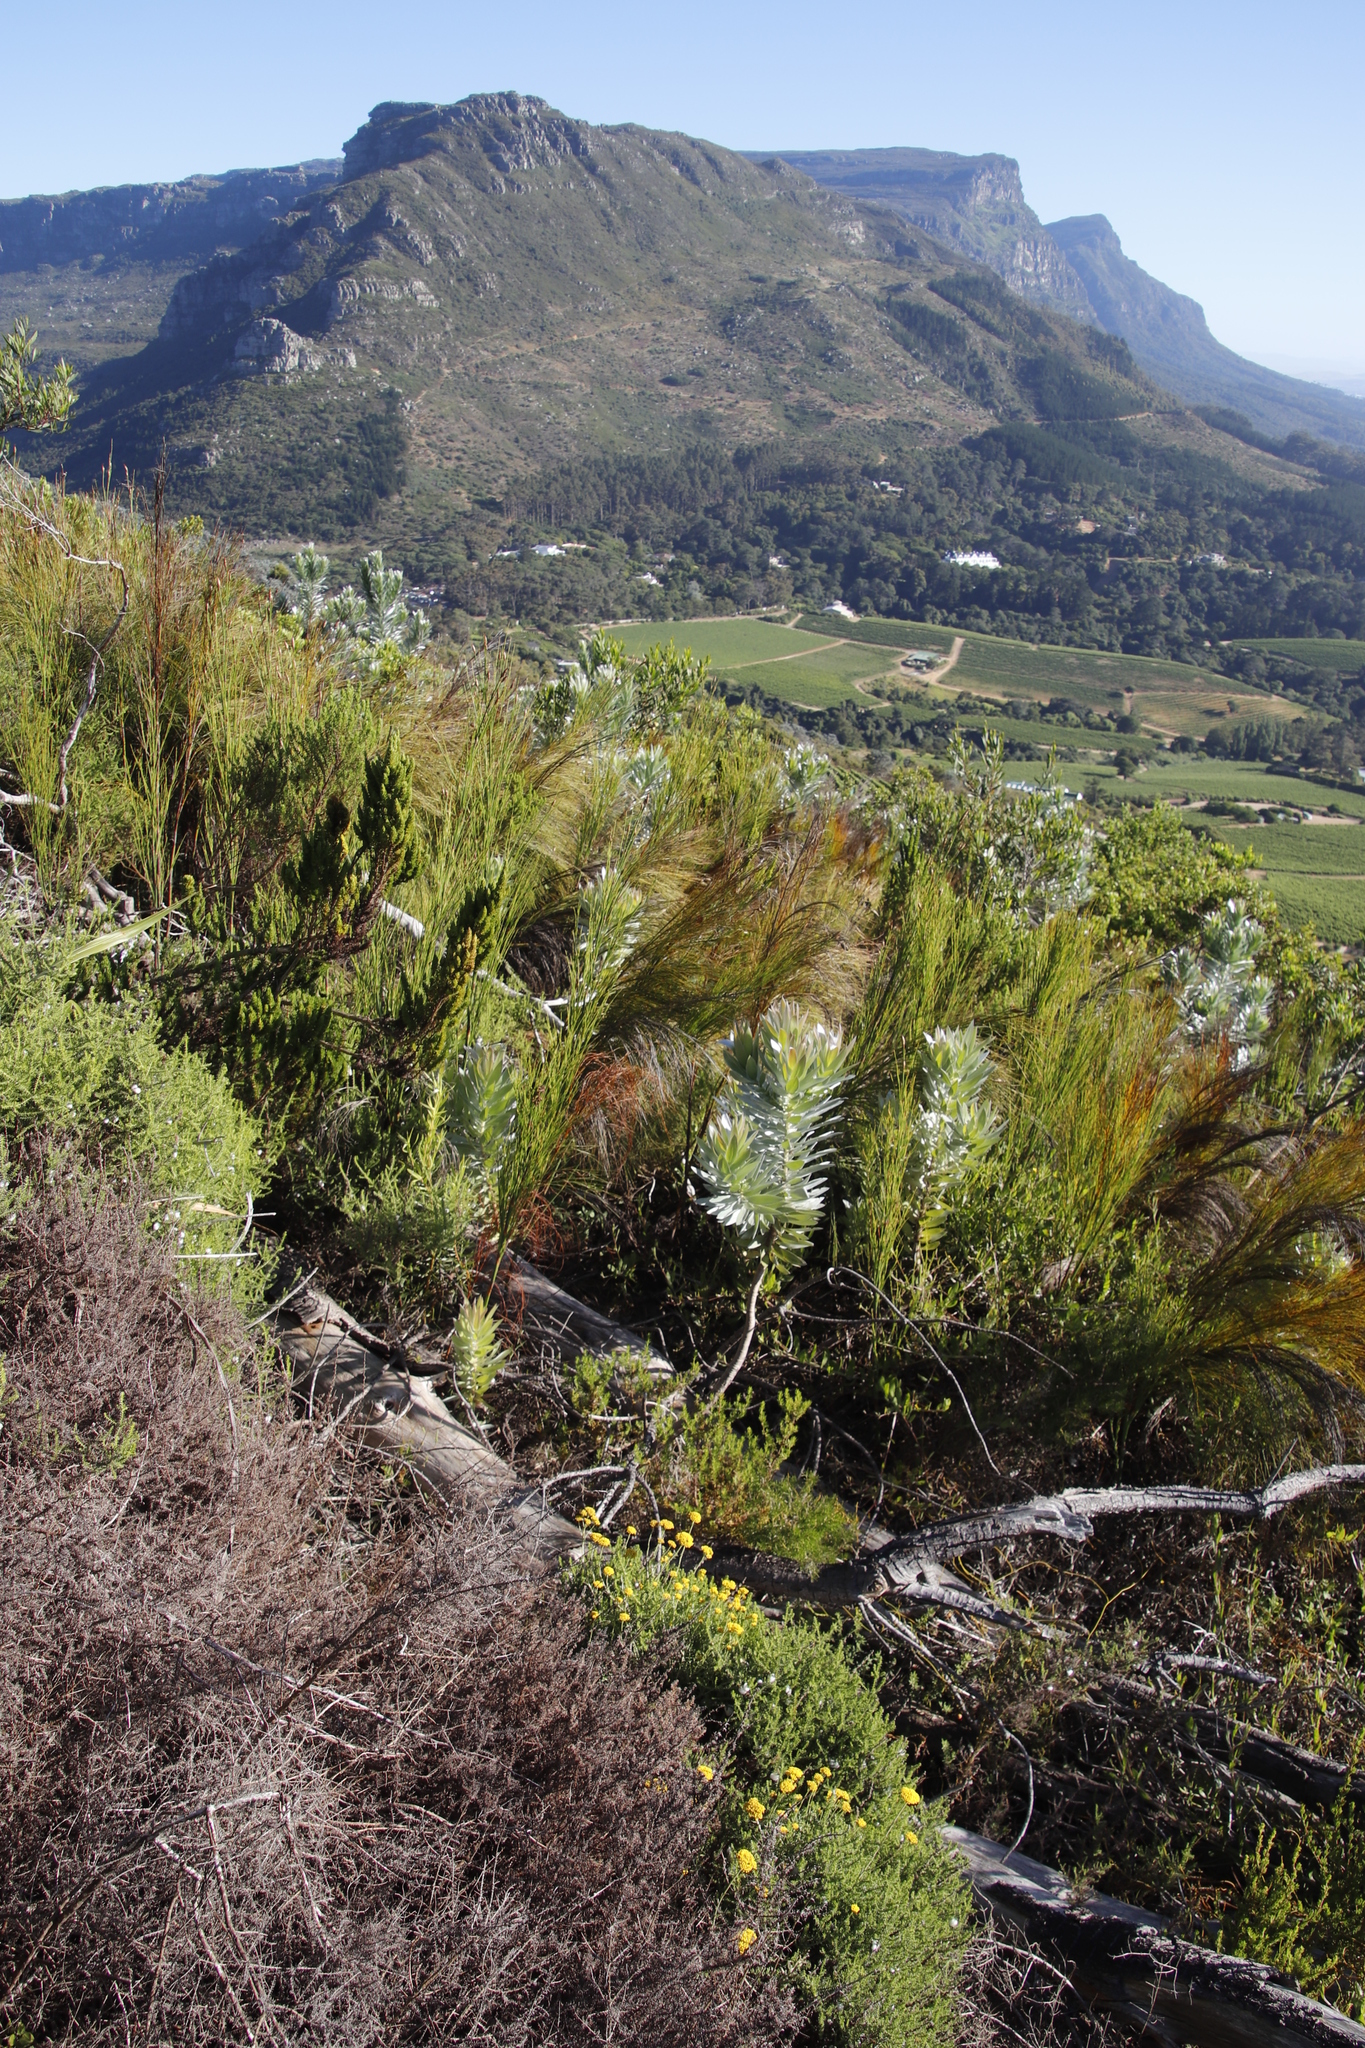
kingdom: Plantae
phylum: Tracheophyta
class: Magnoliopsida
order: Proteales
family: Proteaceae
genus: Leucadendron
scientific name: Leucadendron argenteum
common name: Cape silver tree
